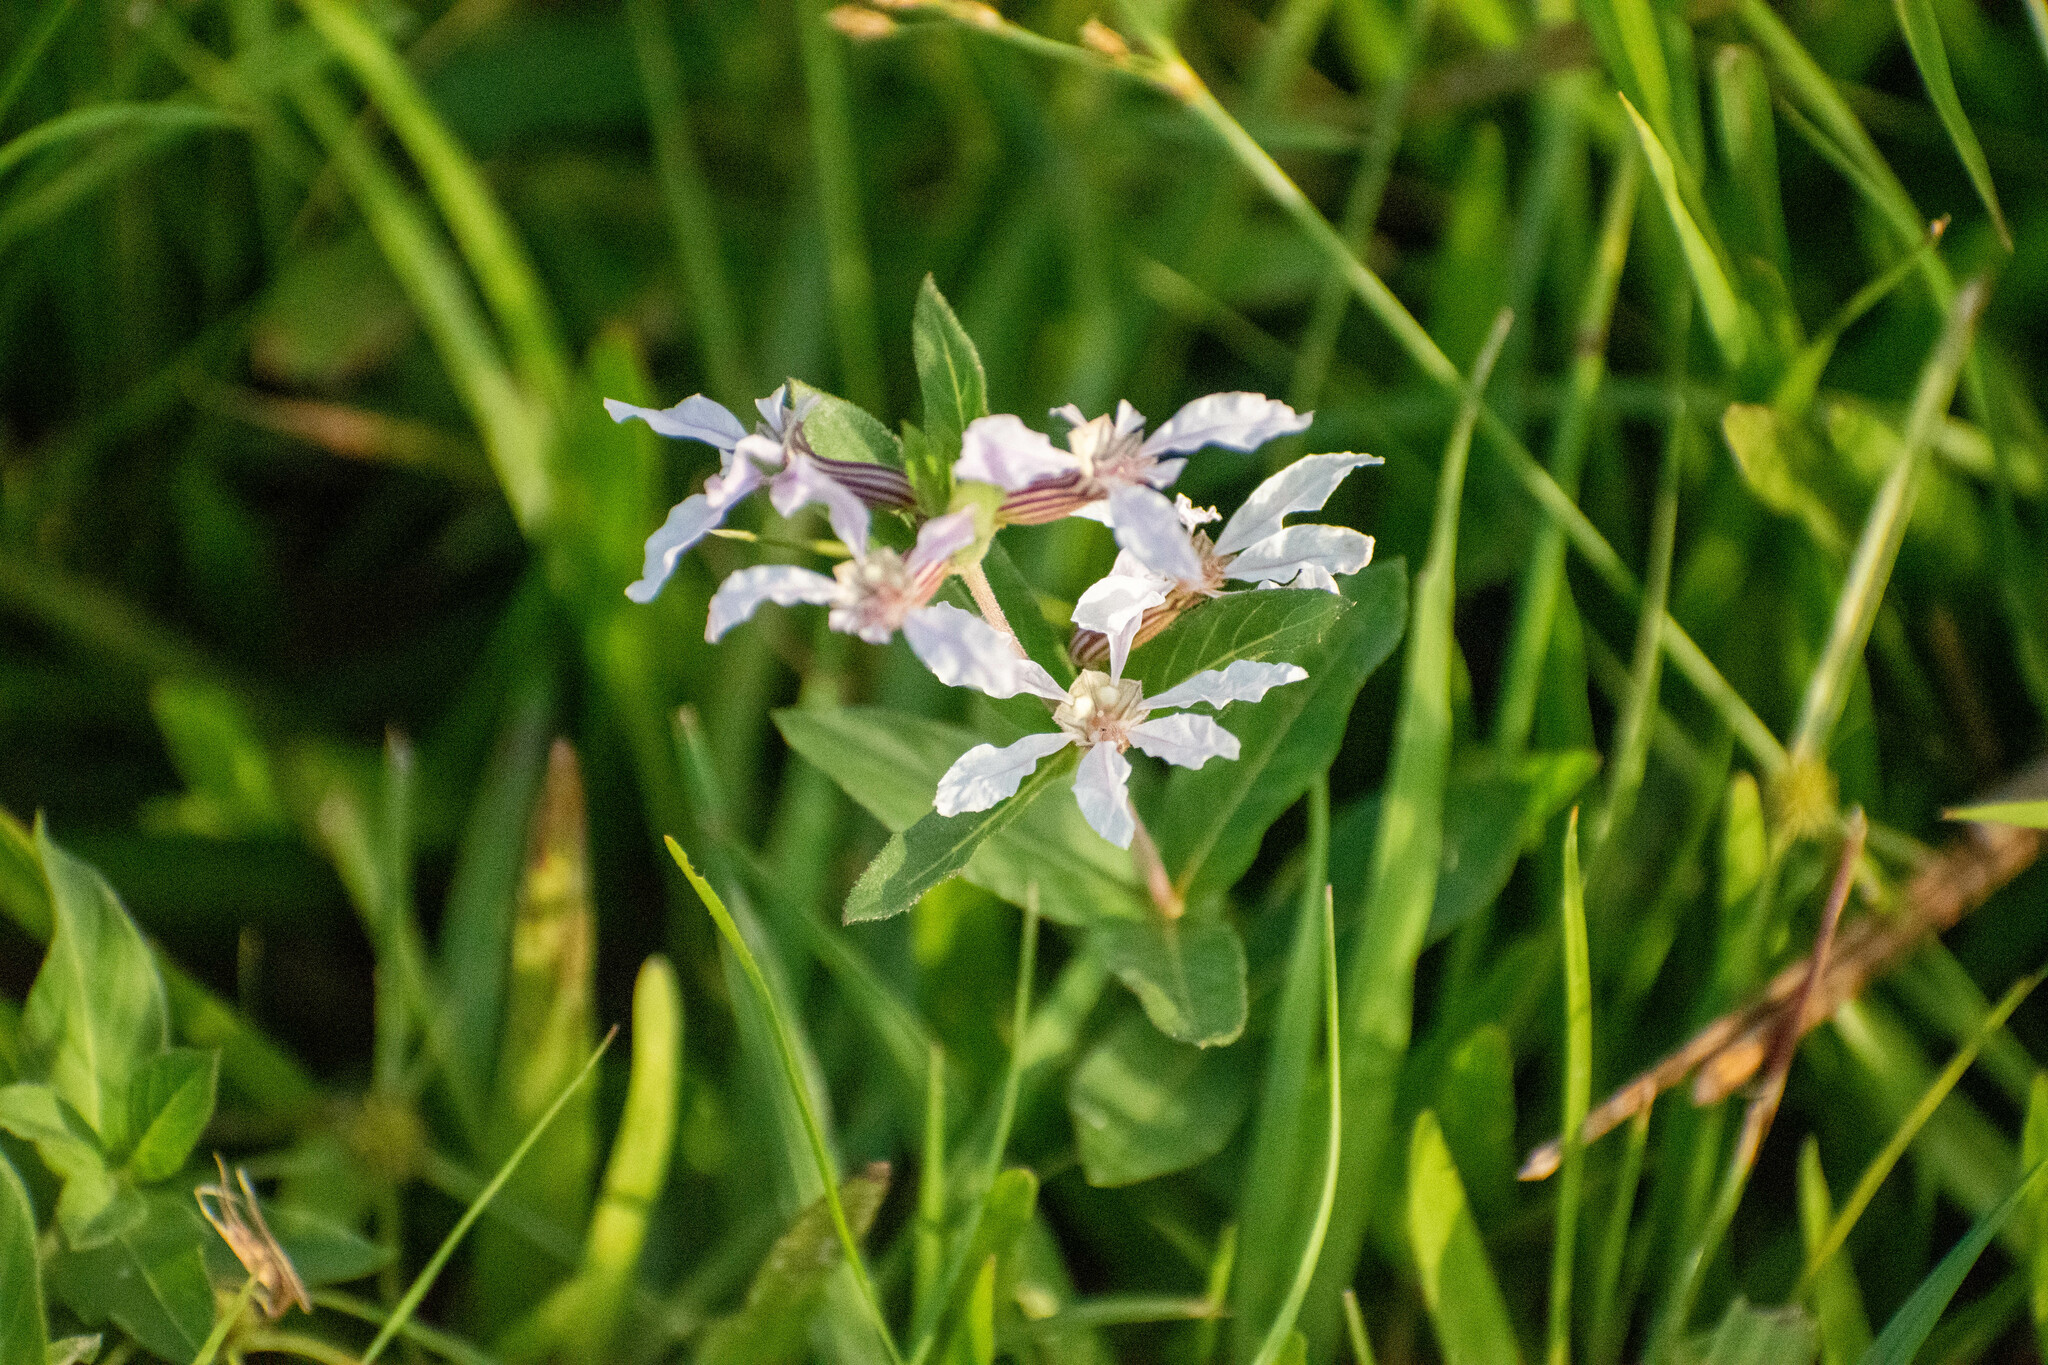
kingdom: Plantae
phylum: Tracheophyta
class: Magnoliopsida
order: Myrtales
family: Lythraceae
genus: Cuphea
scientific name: Cuphea lysimachioides
